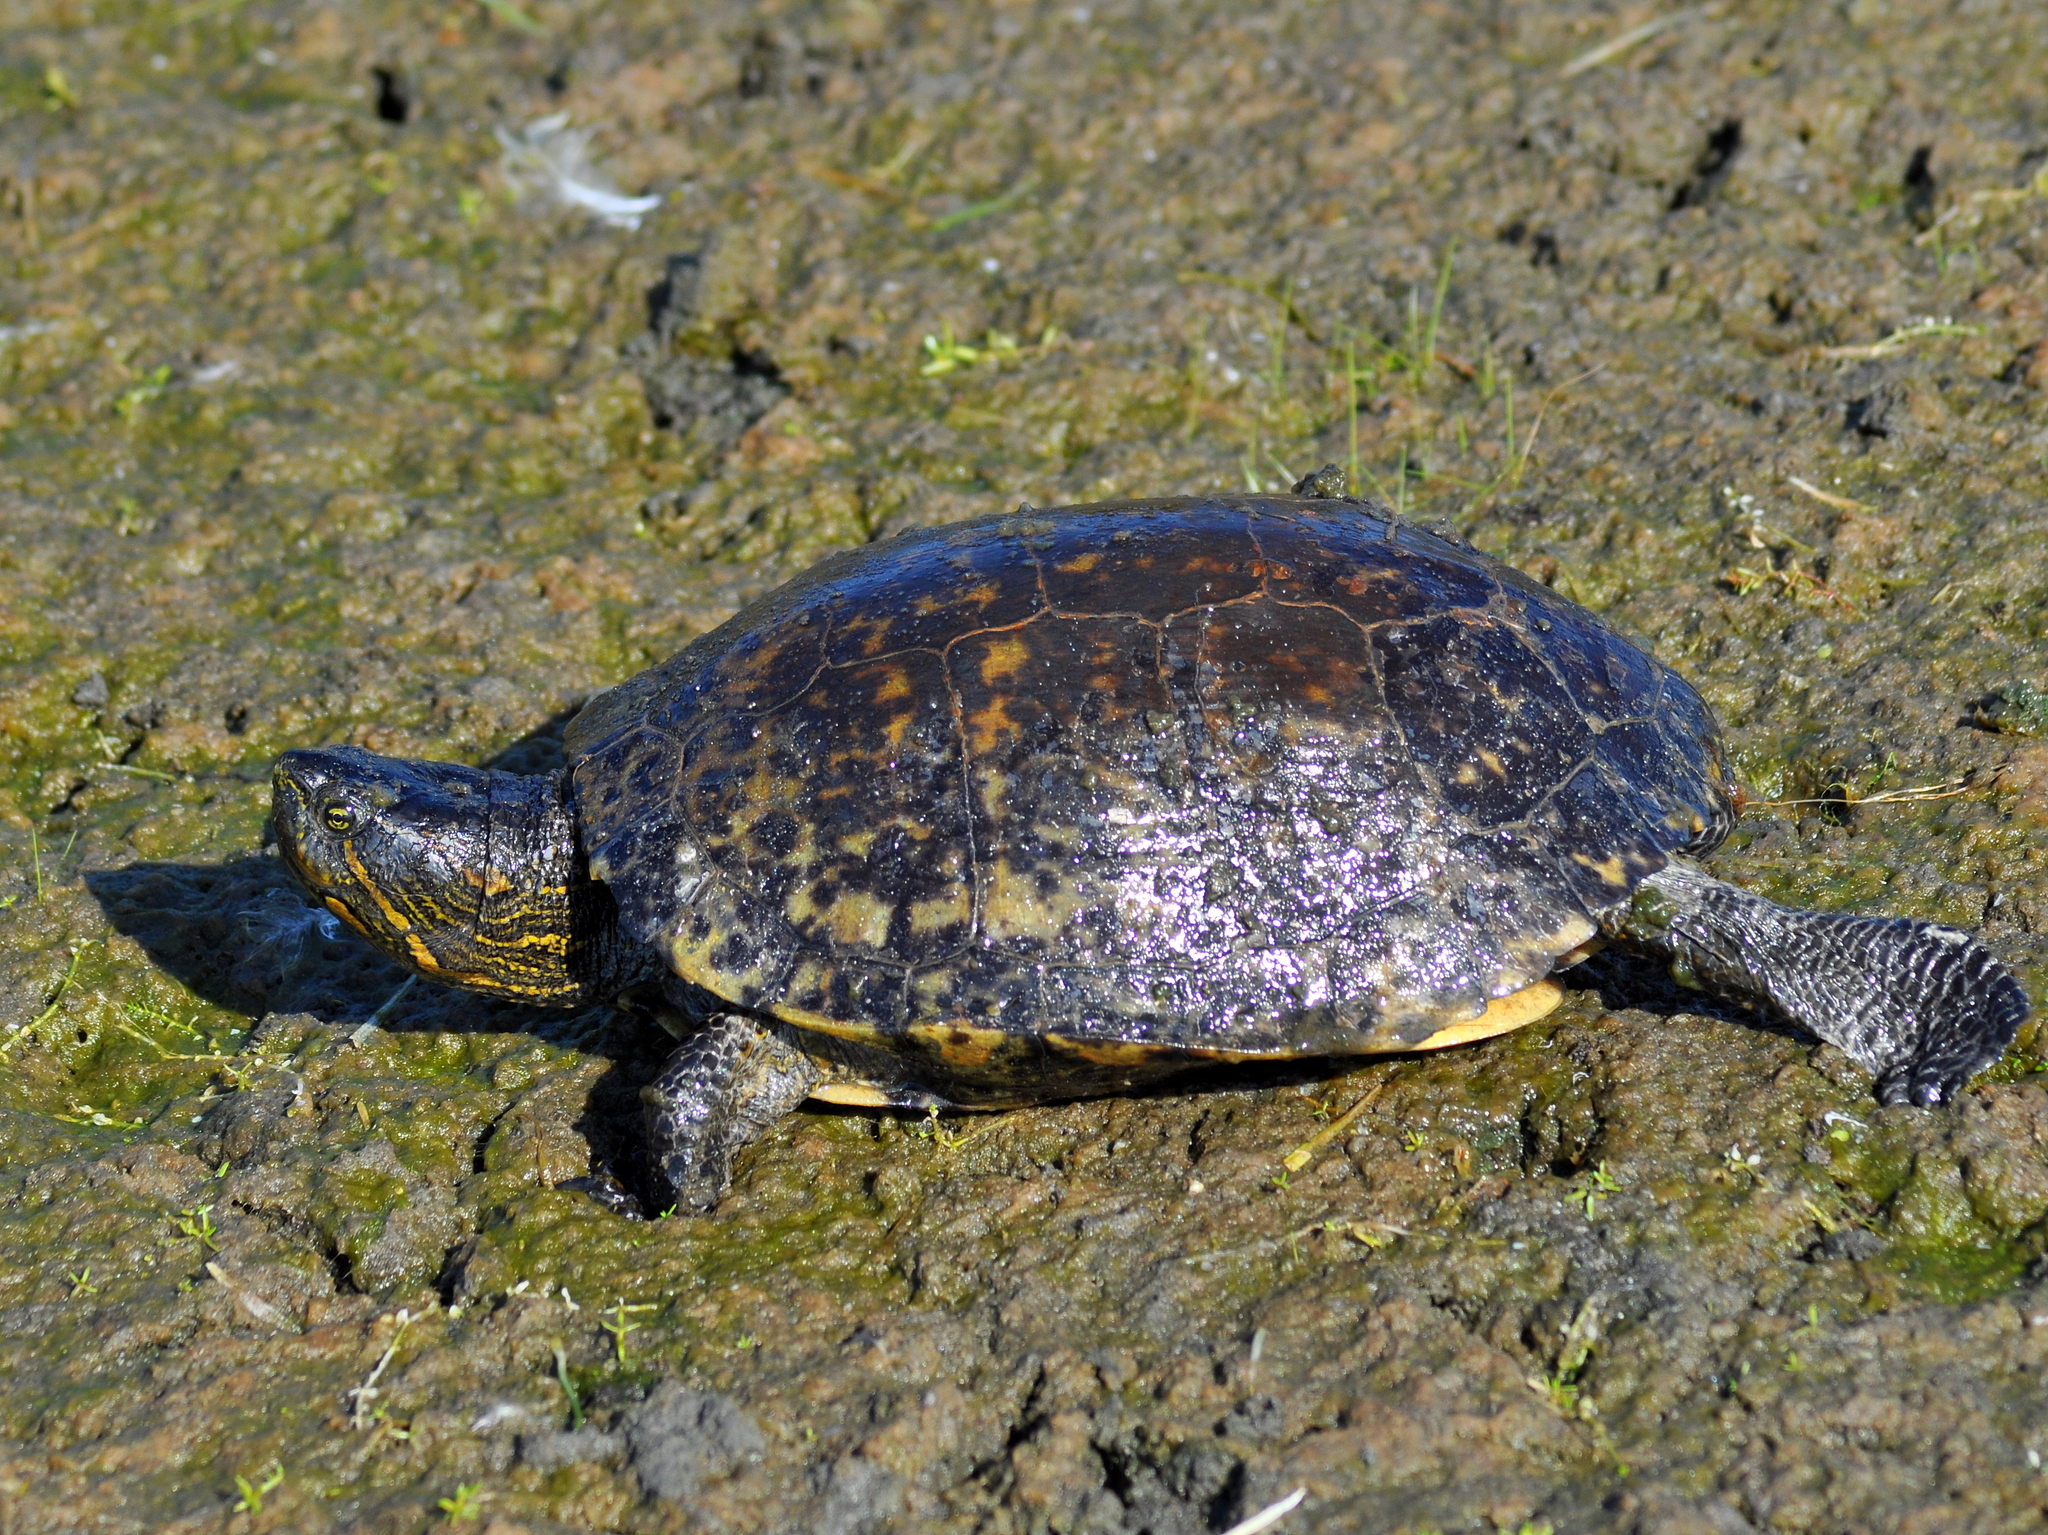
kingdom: Animalia
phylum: Chordata
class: Testudines
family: Emydidae
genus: Trachemys
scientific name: Trachemys dorbigni
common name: Black-bellied slider
